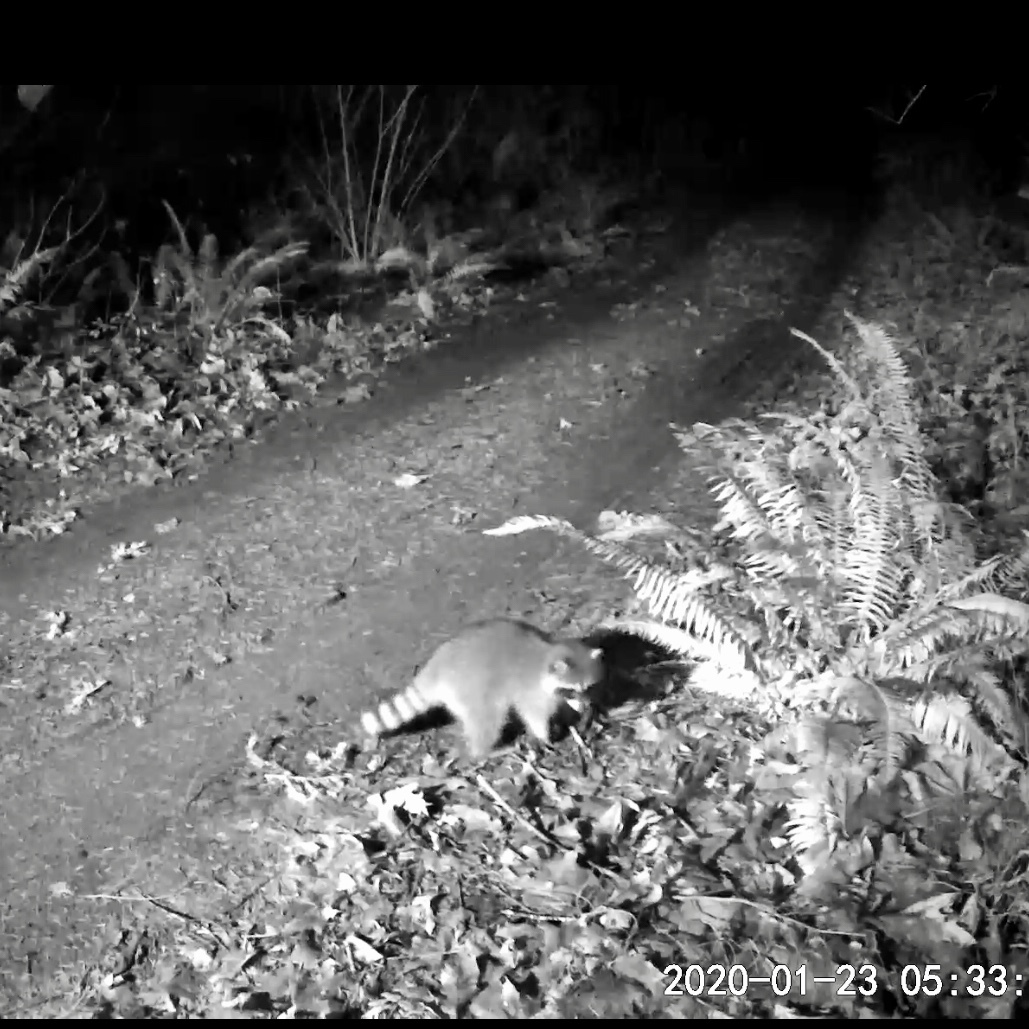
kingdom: Animalia
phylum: Chordata
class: Mammalia
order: Carnivora
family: Procyonidae
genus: Procyon
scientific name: Procyon lotor
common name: Raccoon
